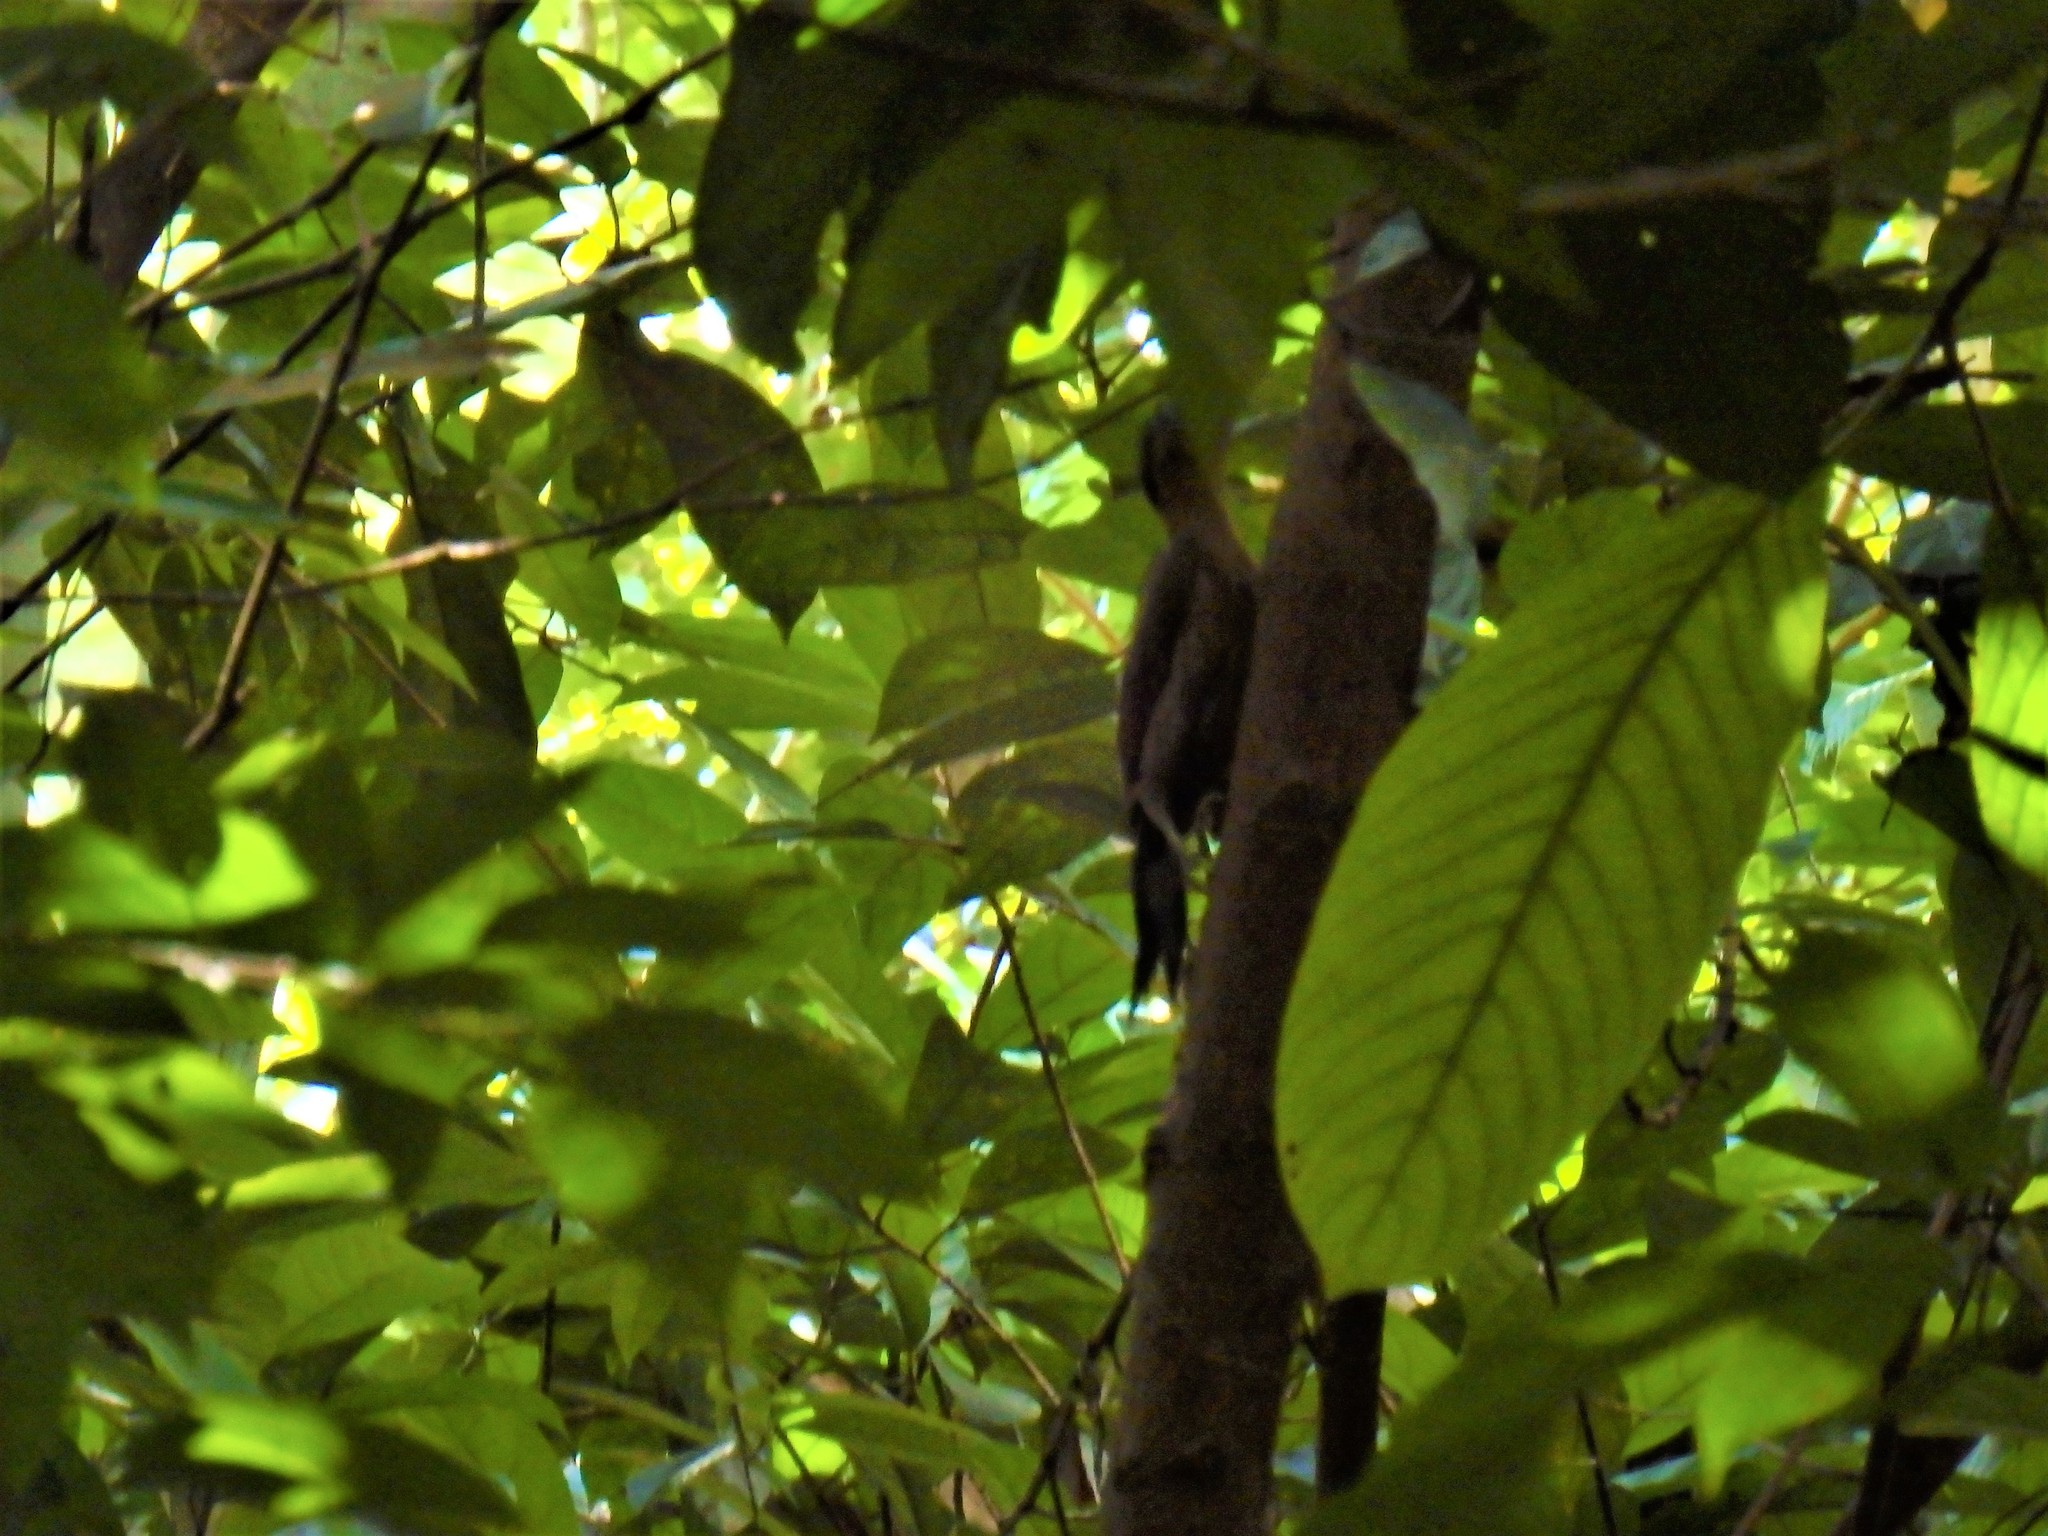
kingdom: Animalia
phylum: Chordata
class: Aves
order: Piciformes
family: Picidae
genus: Picus
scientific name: Picus vittatus
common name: Laced woodpecker
